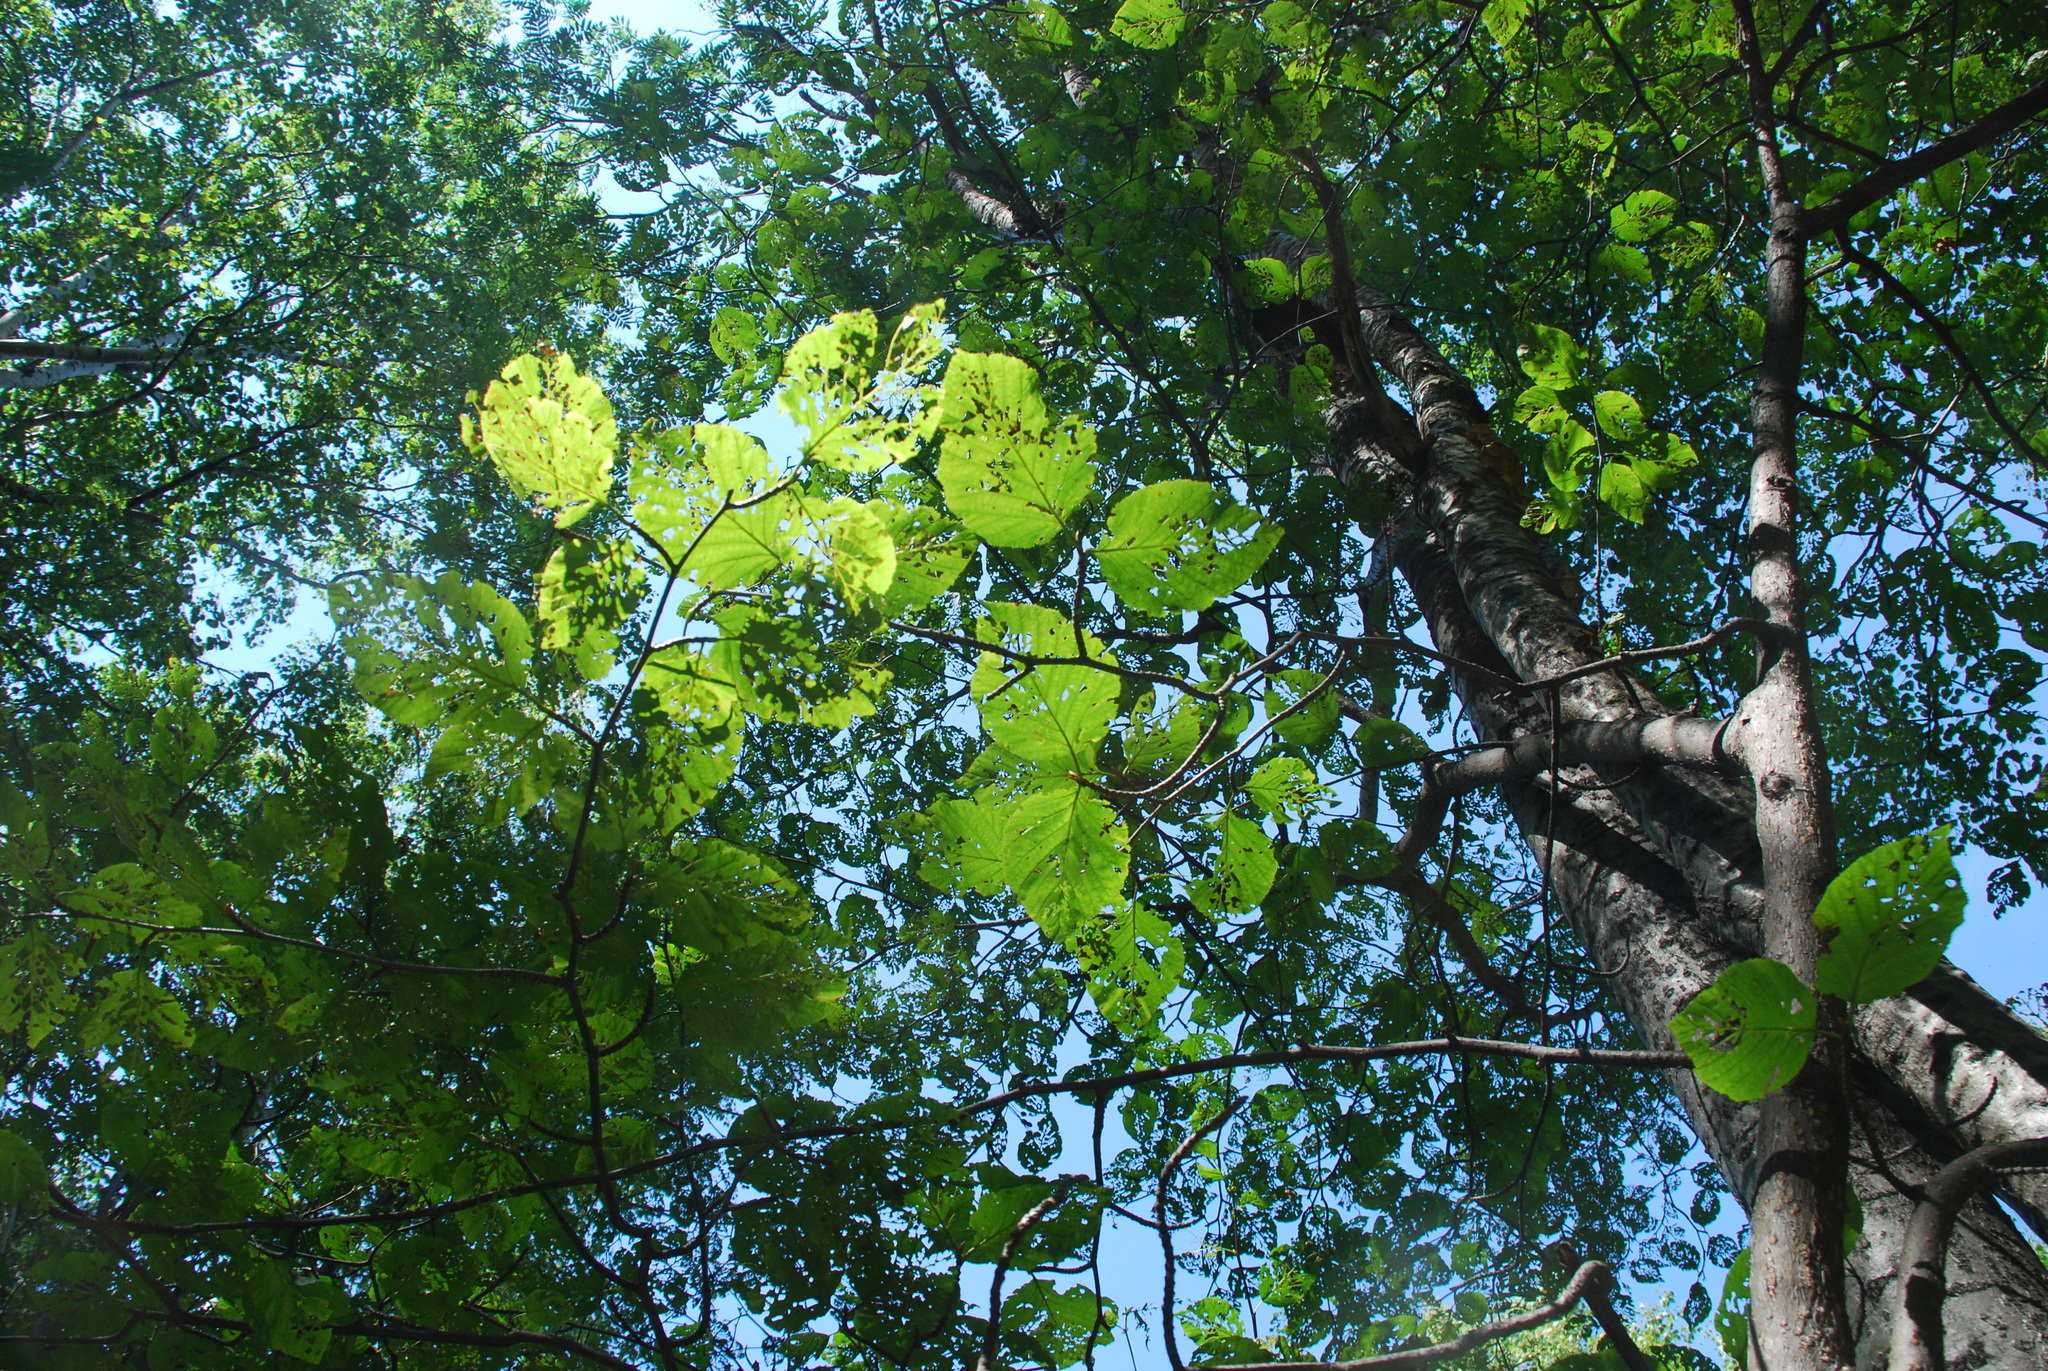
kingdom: Plantae
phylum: Tracheophyta
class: Magnoliopsida
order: Fagales
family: Betulaceae
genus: Alnus
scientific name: Alnus alnobetula
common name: Green alder
